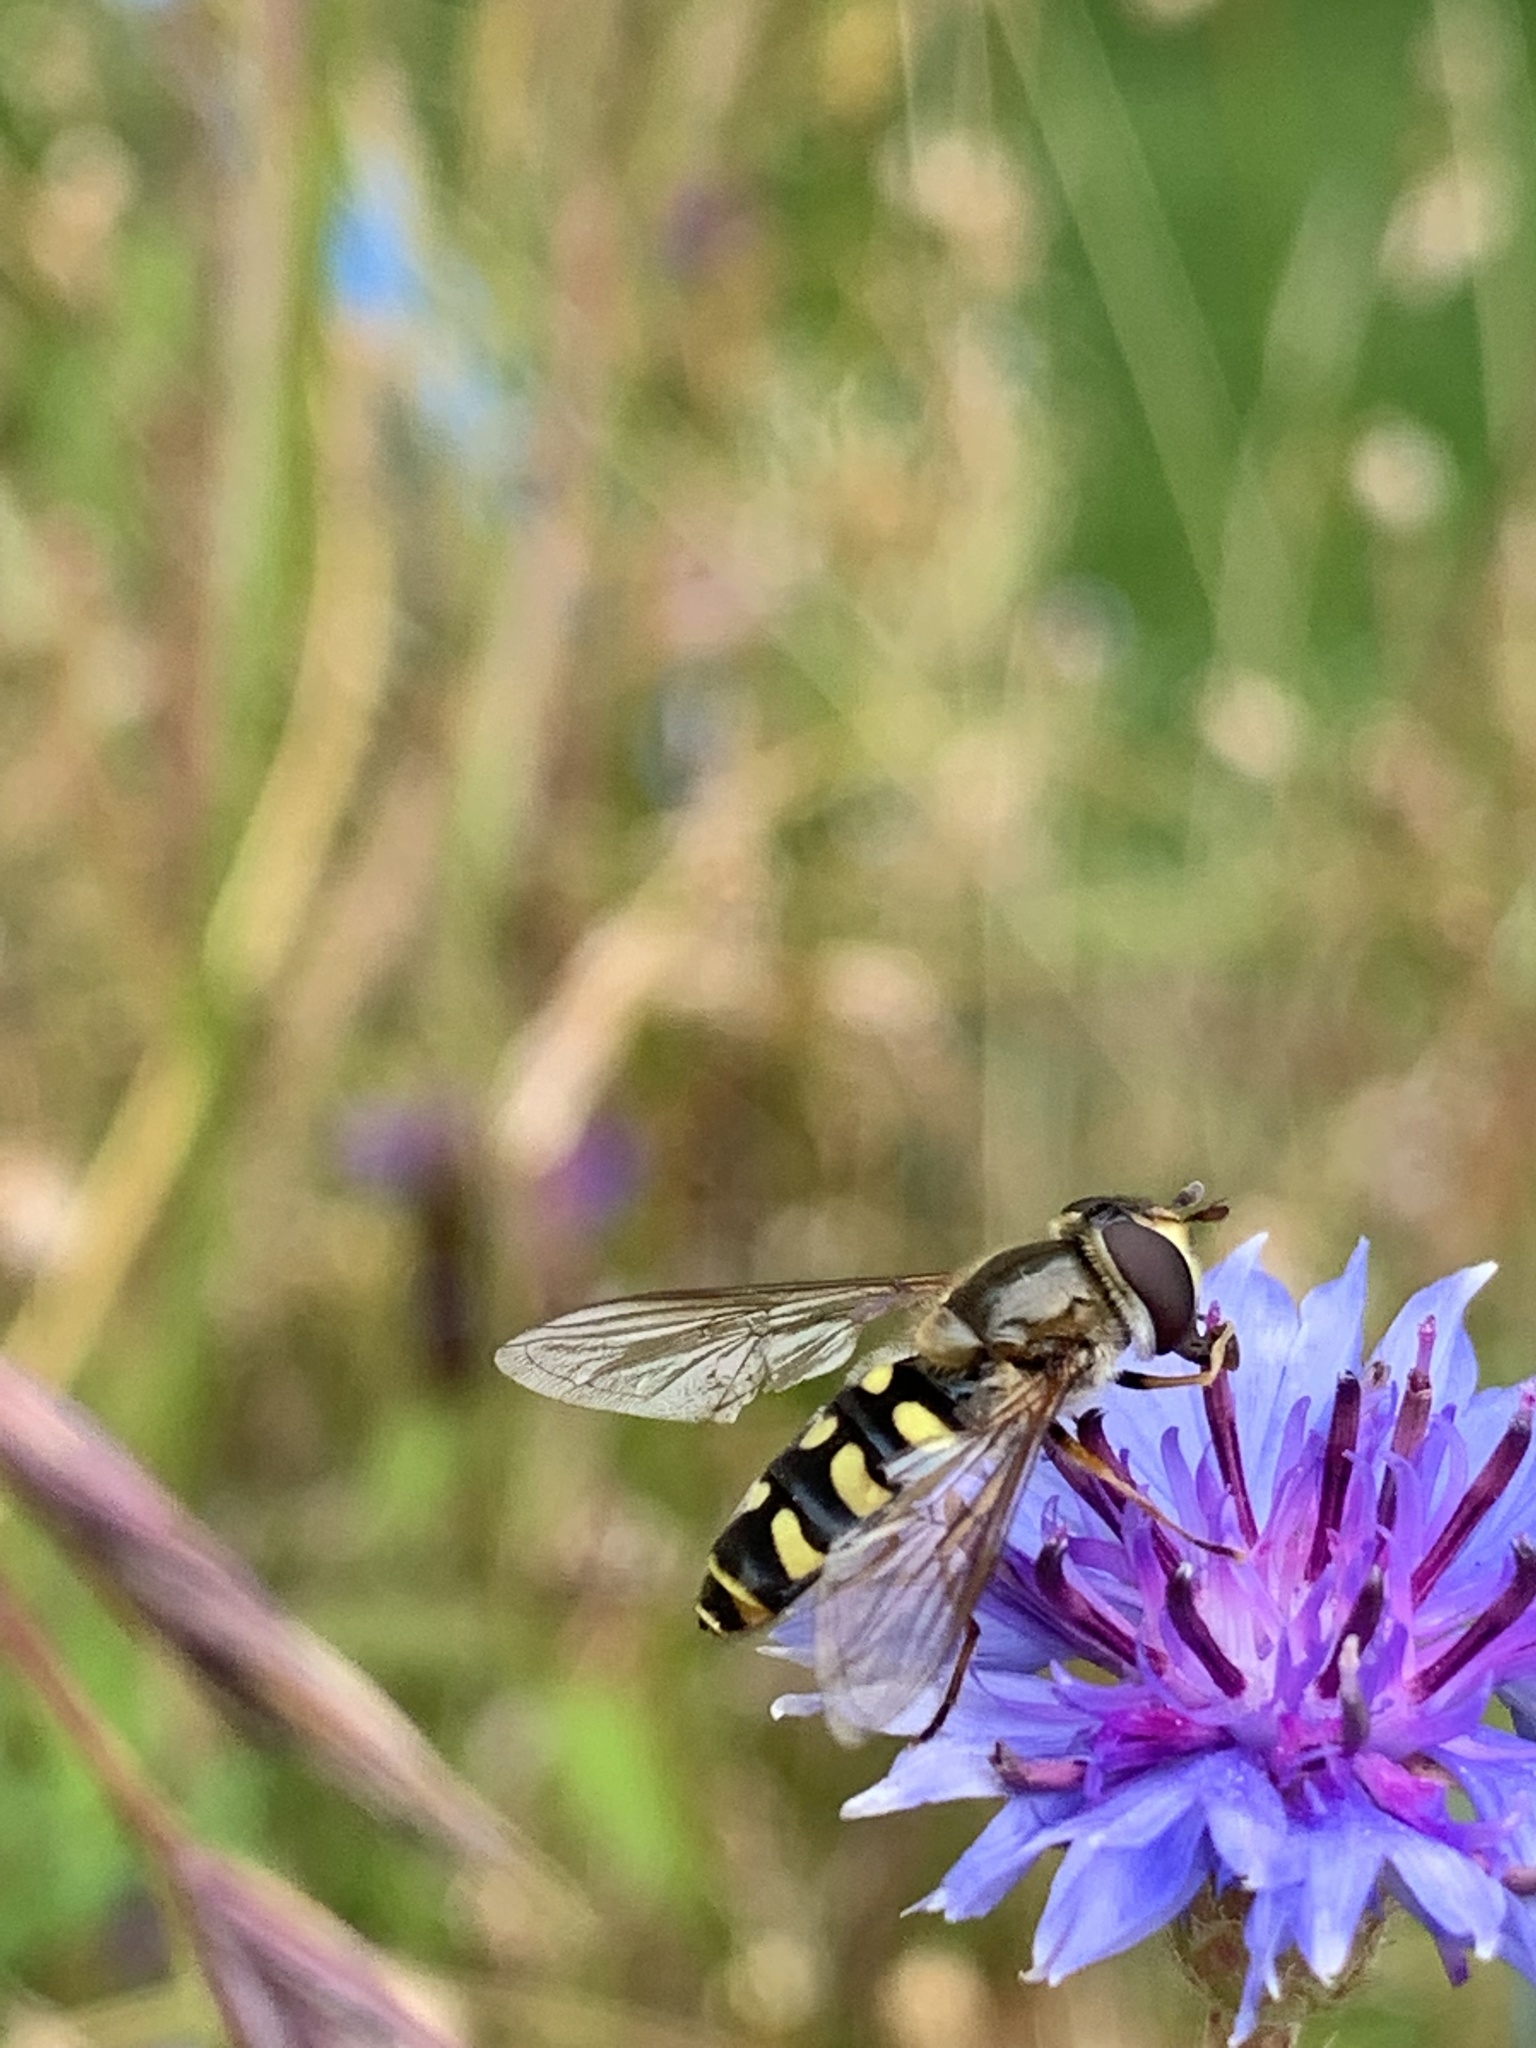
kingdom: Animalia
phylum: Arthropoda
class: Insecta
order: Diptera
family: Syrphidae
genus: Eupeodes
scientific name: Eupeodes luniger
